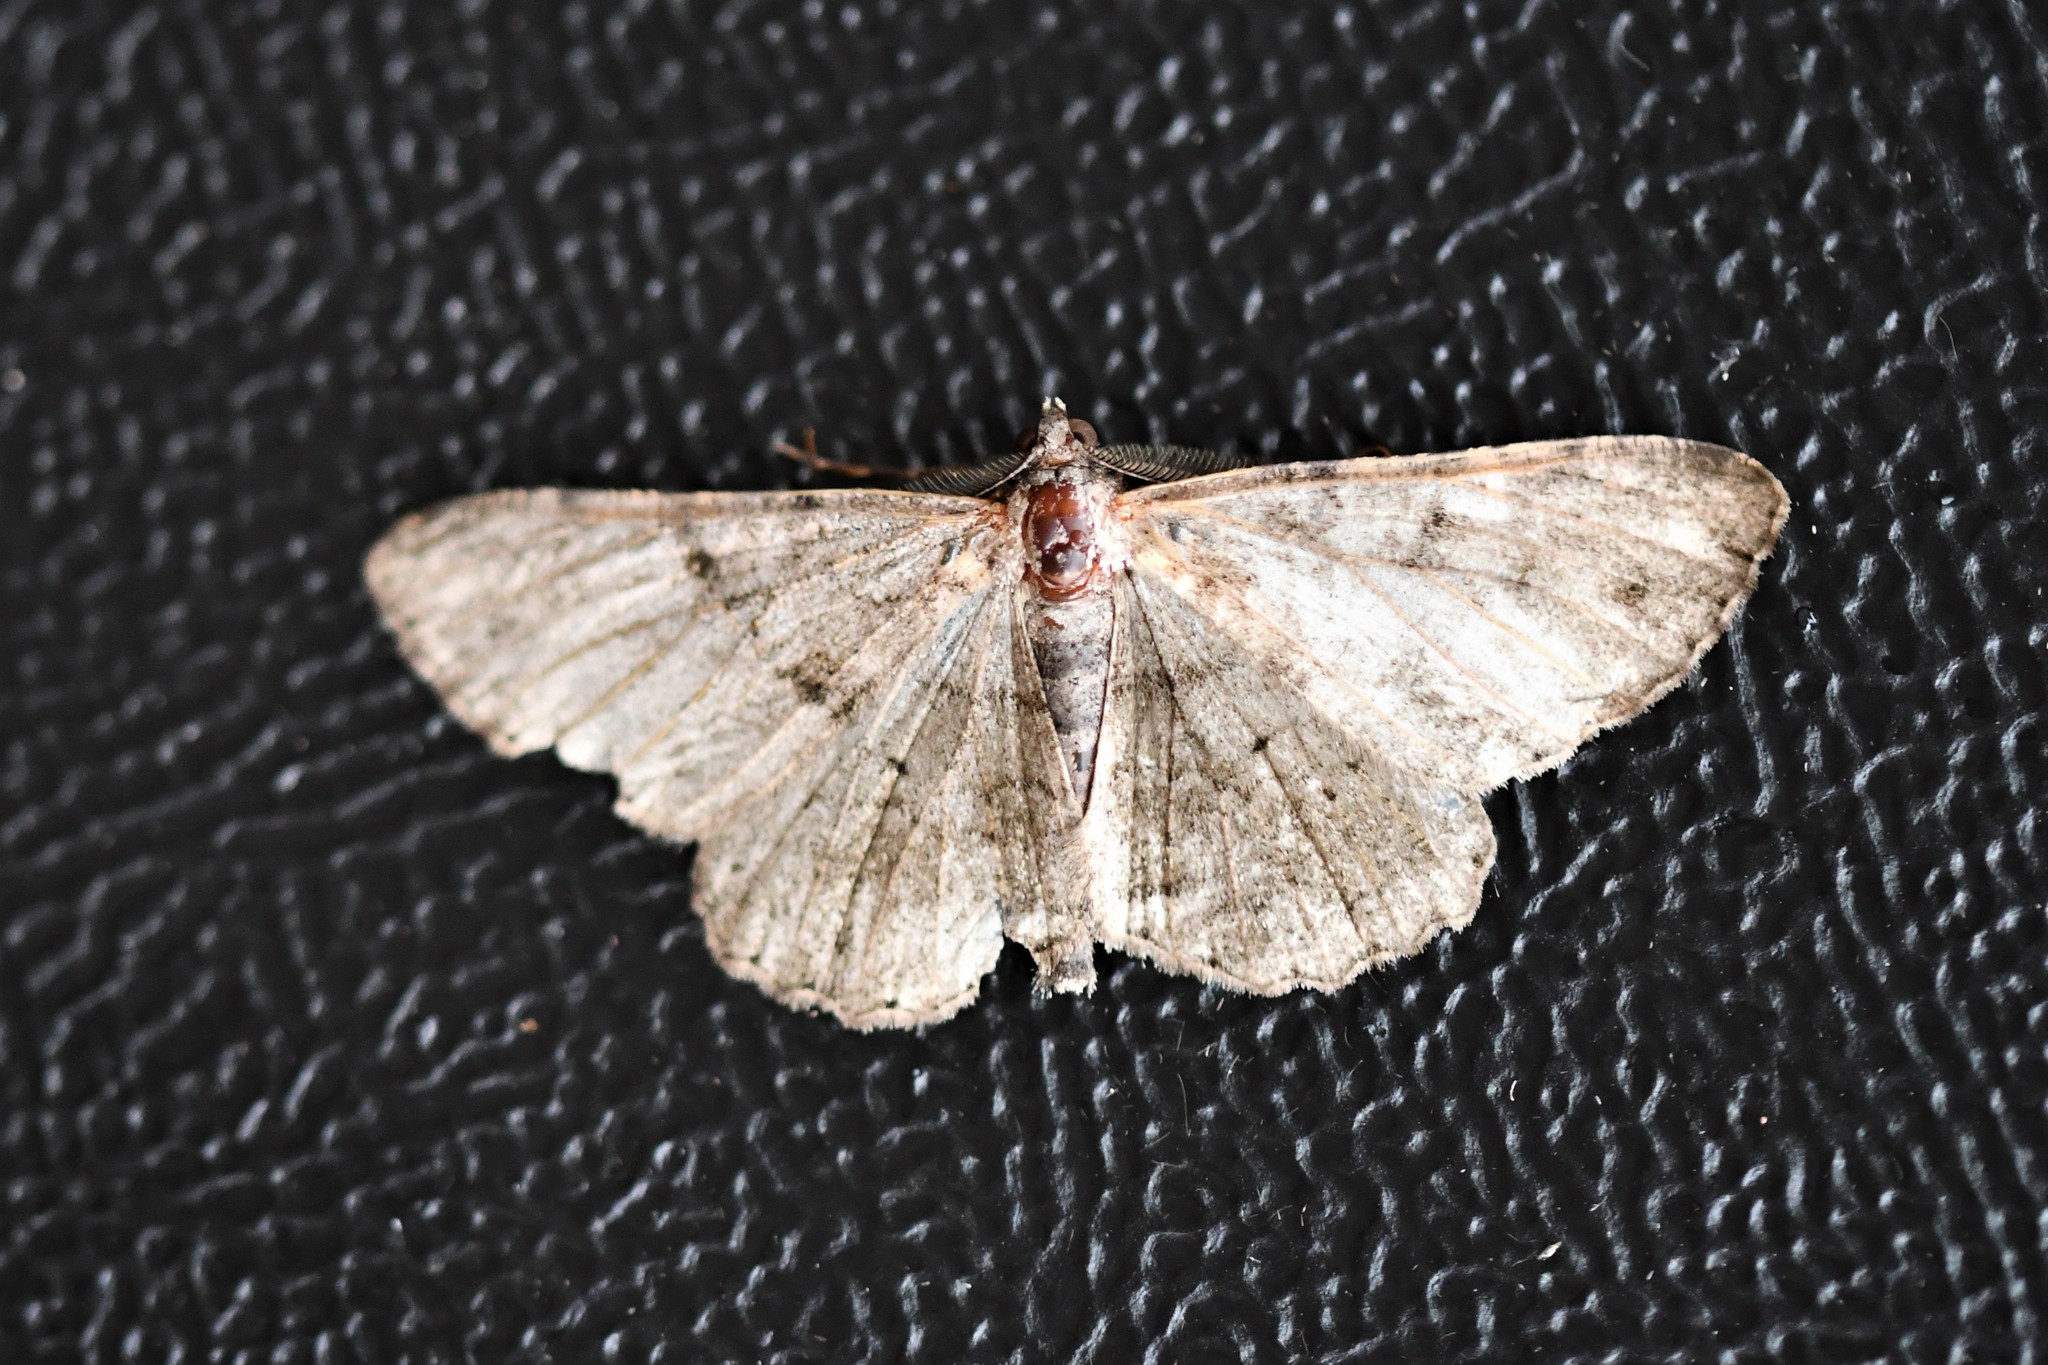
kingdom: Animalia
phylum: Arthropoda
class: Insecta
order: Lepidoptera
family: Geometridae
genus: Peribatodes
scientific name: Peribatodes rhomboidaria
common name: Willow beauty
